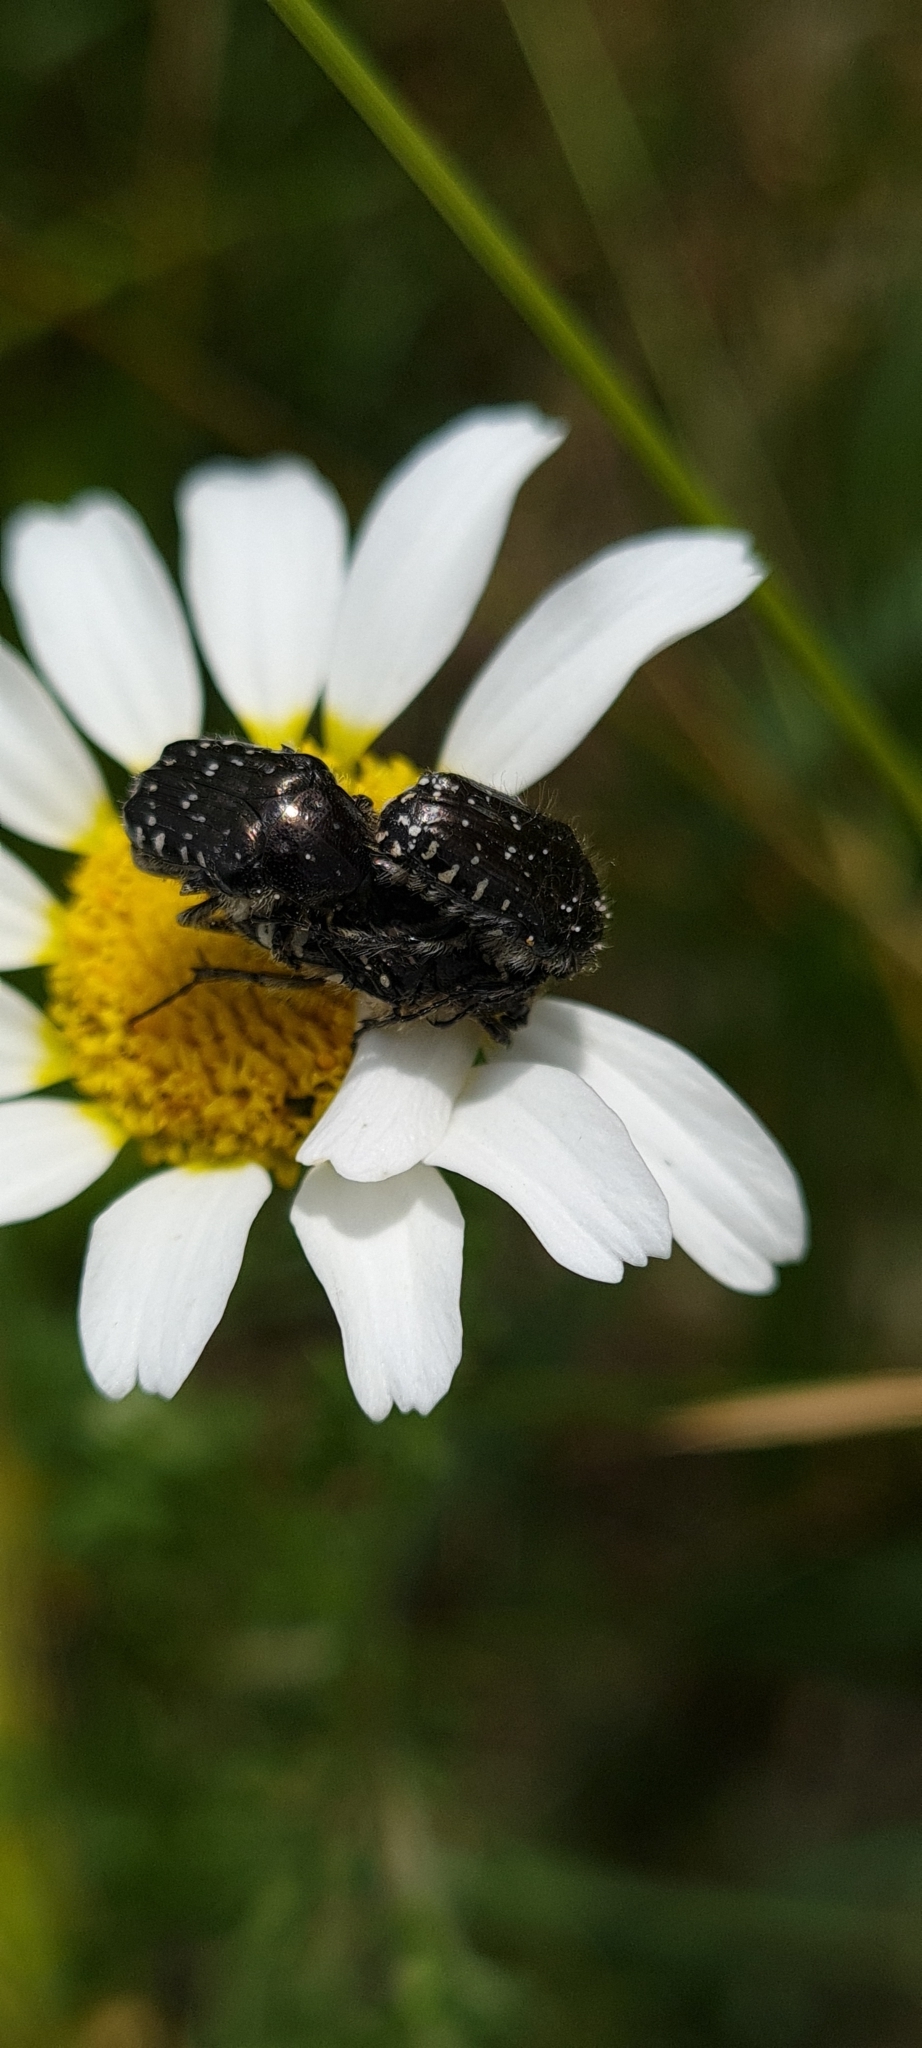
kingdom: Animalia
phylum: Arthropoda
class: Insecta
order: Coleoptera
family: Scarabaeidae
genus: Oxythyrea
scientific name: Oxythyrea funesta
